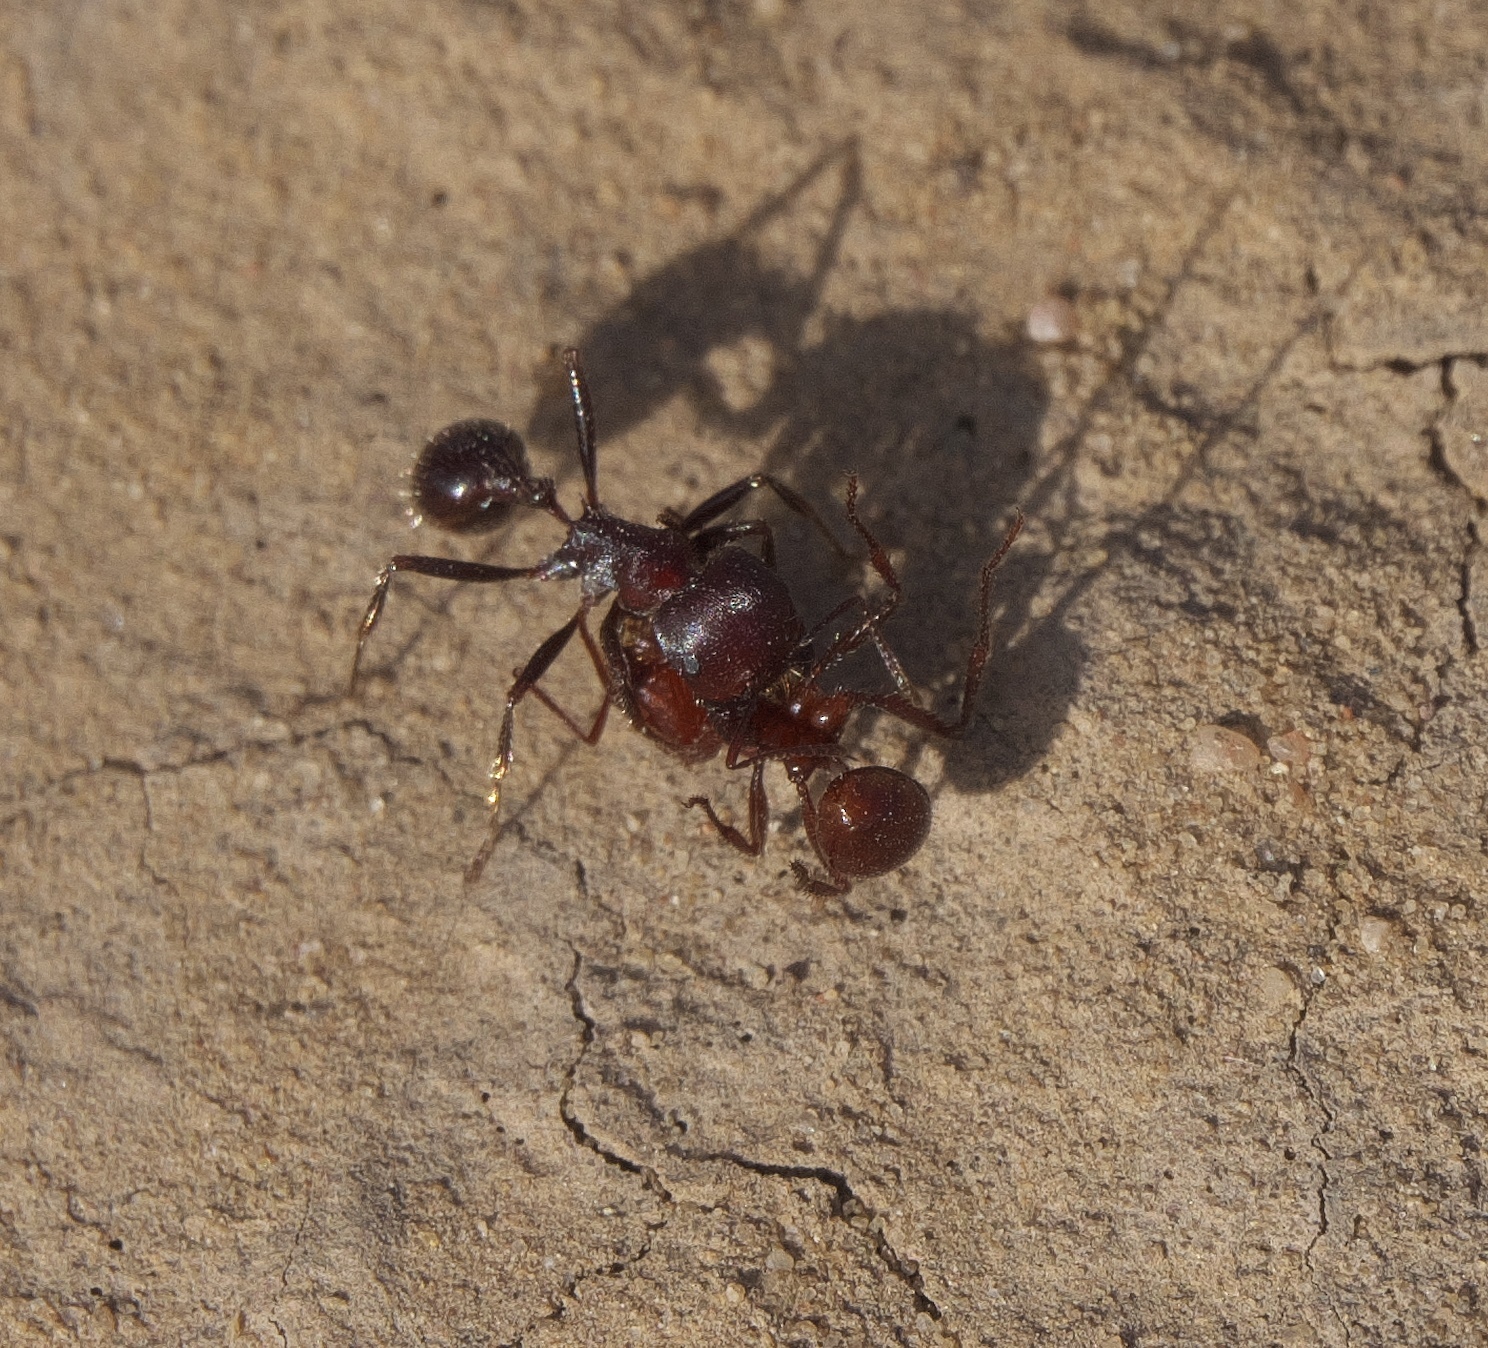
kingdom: Animalia
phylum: Arthropoda
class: Insecta
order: Hymenoptera
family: Formicidae
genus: Pogonomyrmex
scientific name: Pogonomyrmex
